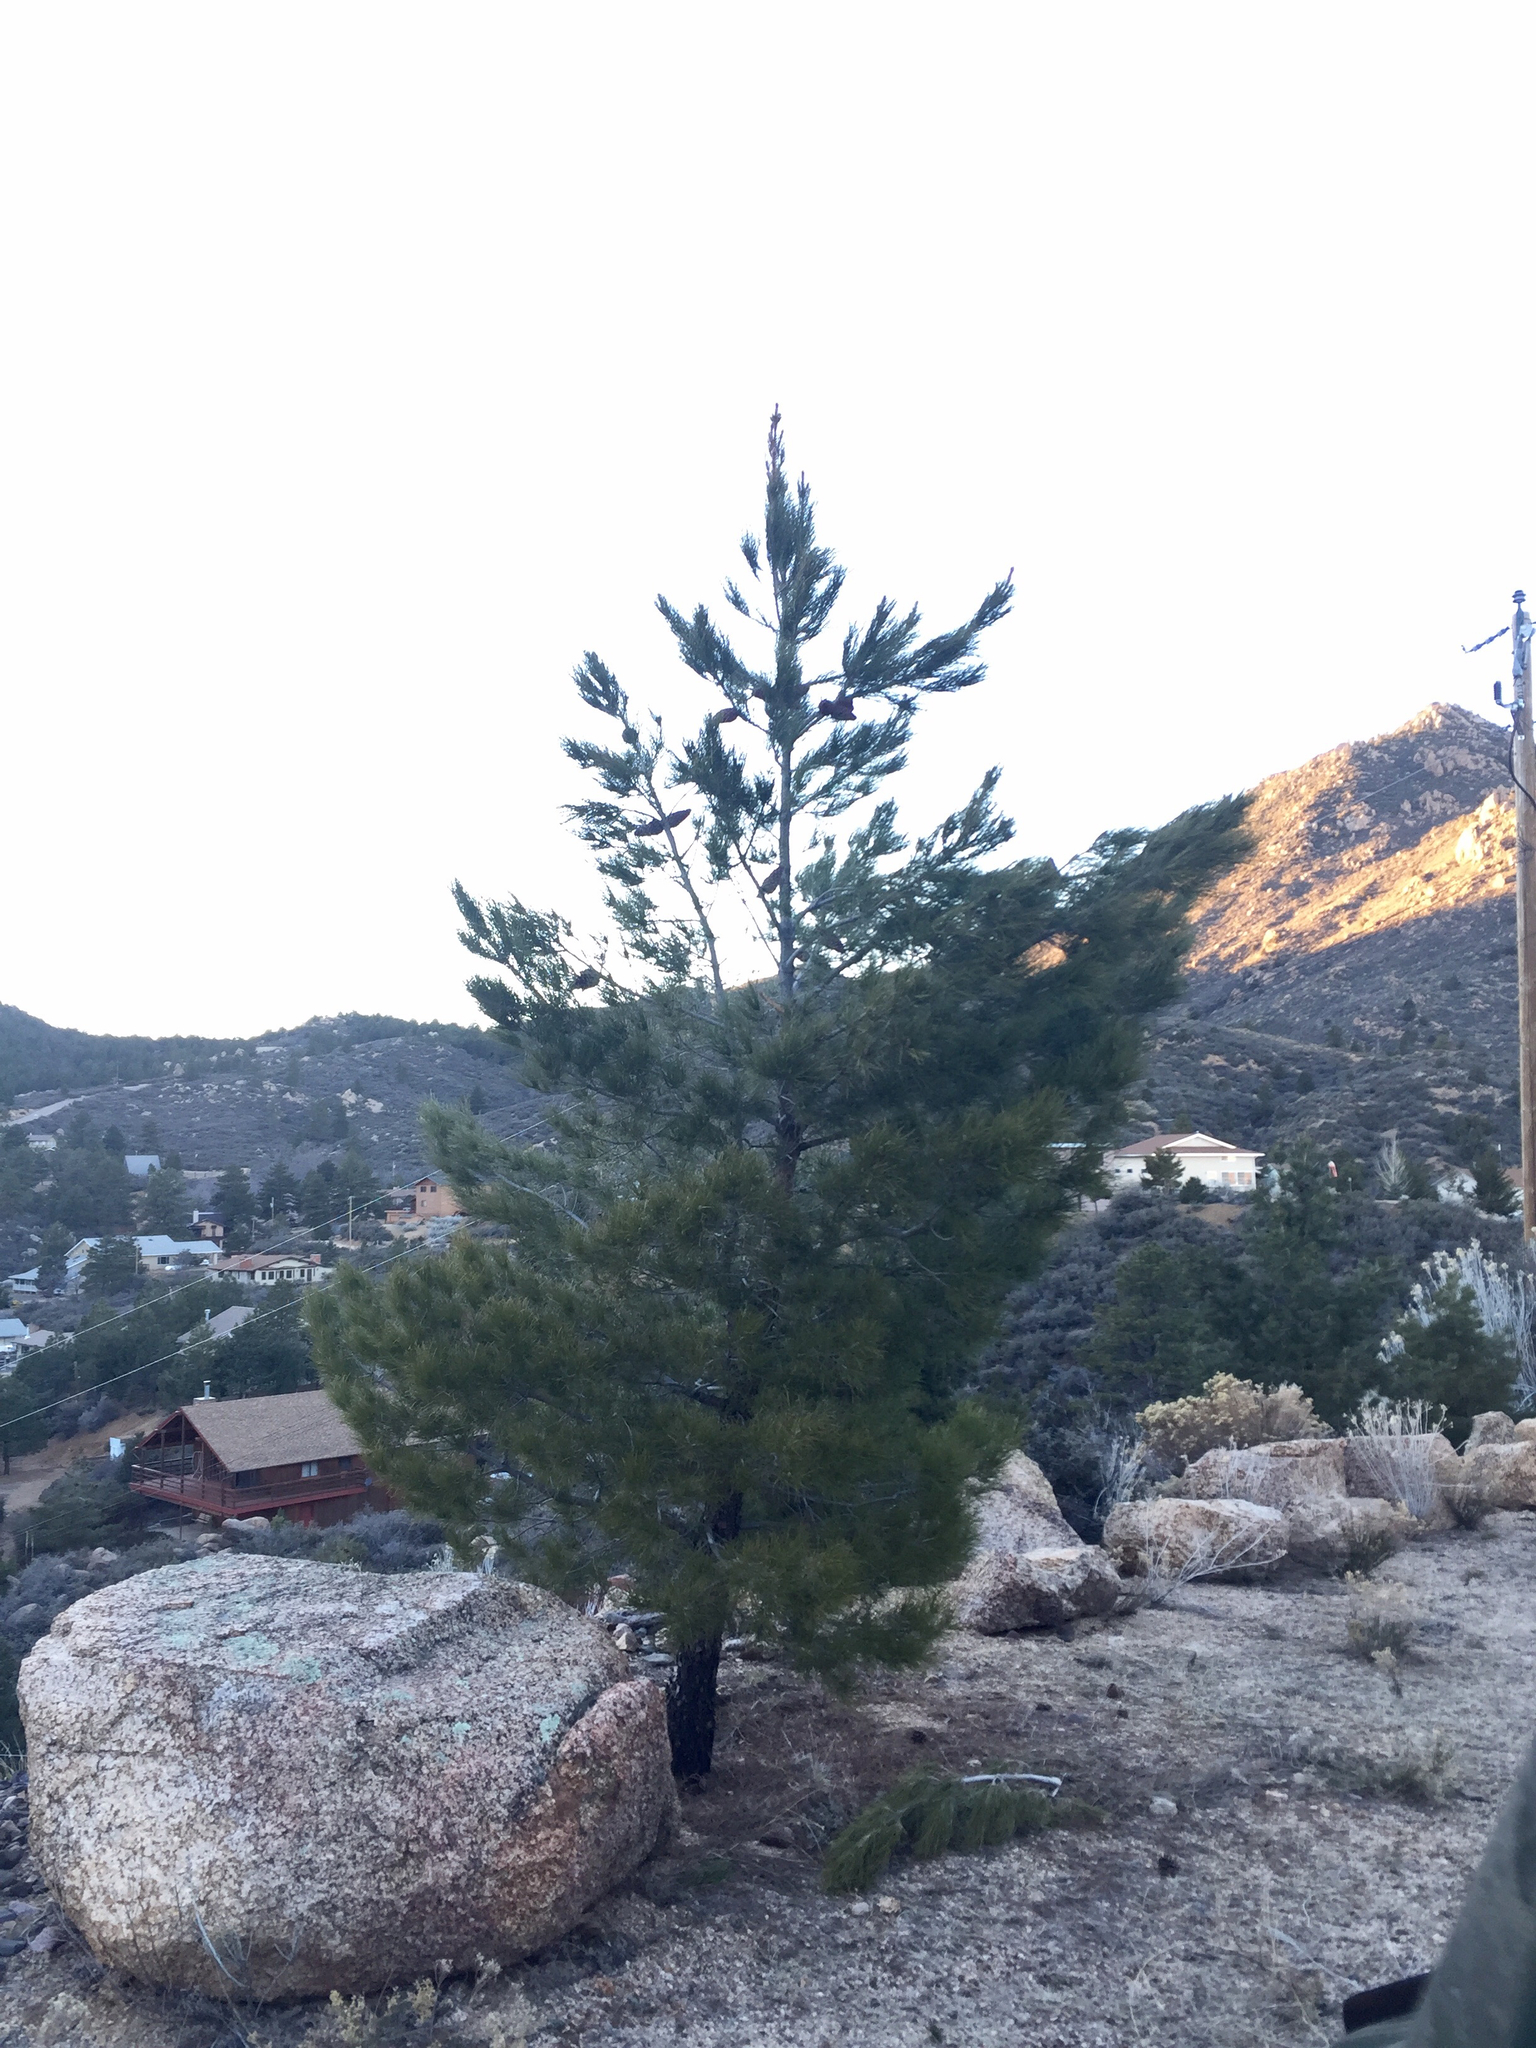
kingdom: Plantae
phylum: Tracheophyta
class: Pinopsida
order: Pinales
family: Pinaceae
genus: Pinus
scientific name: Pinus ponderosa
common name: Western yellow-pine
